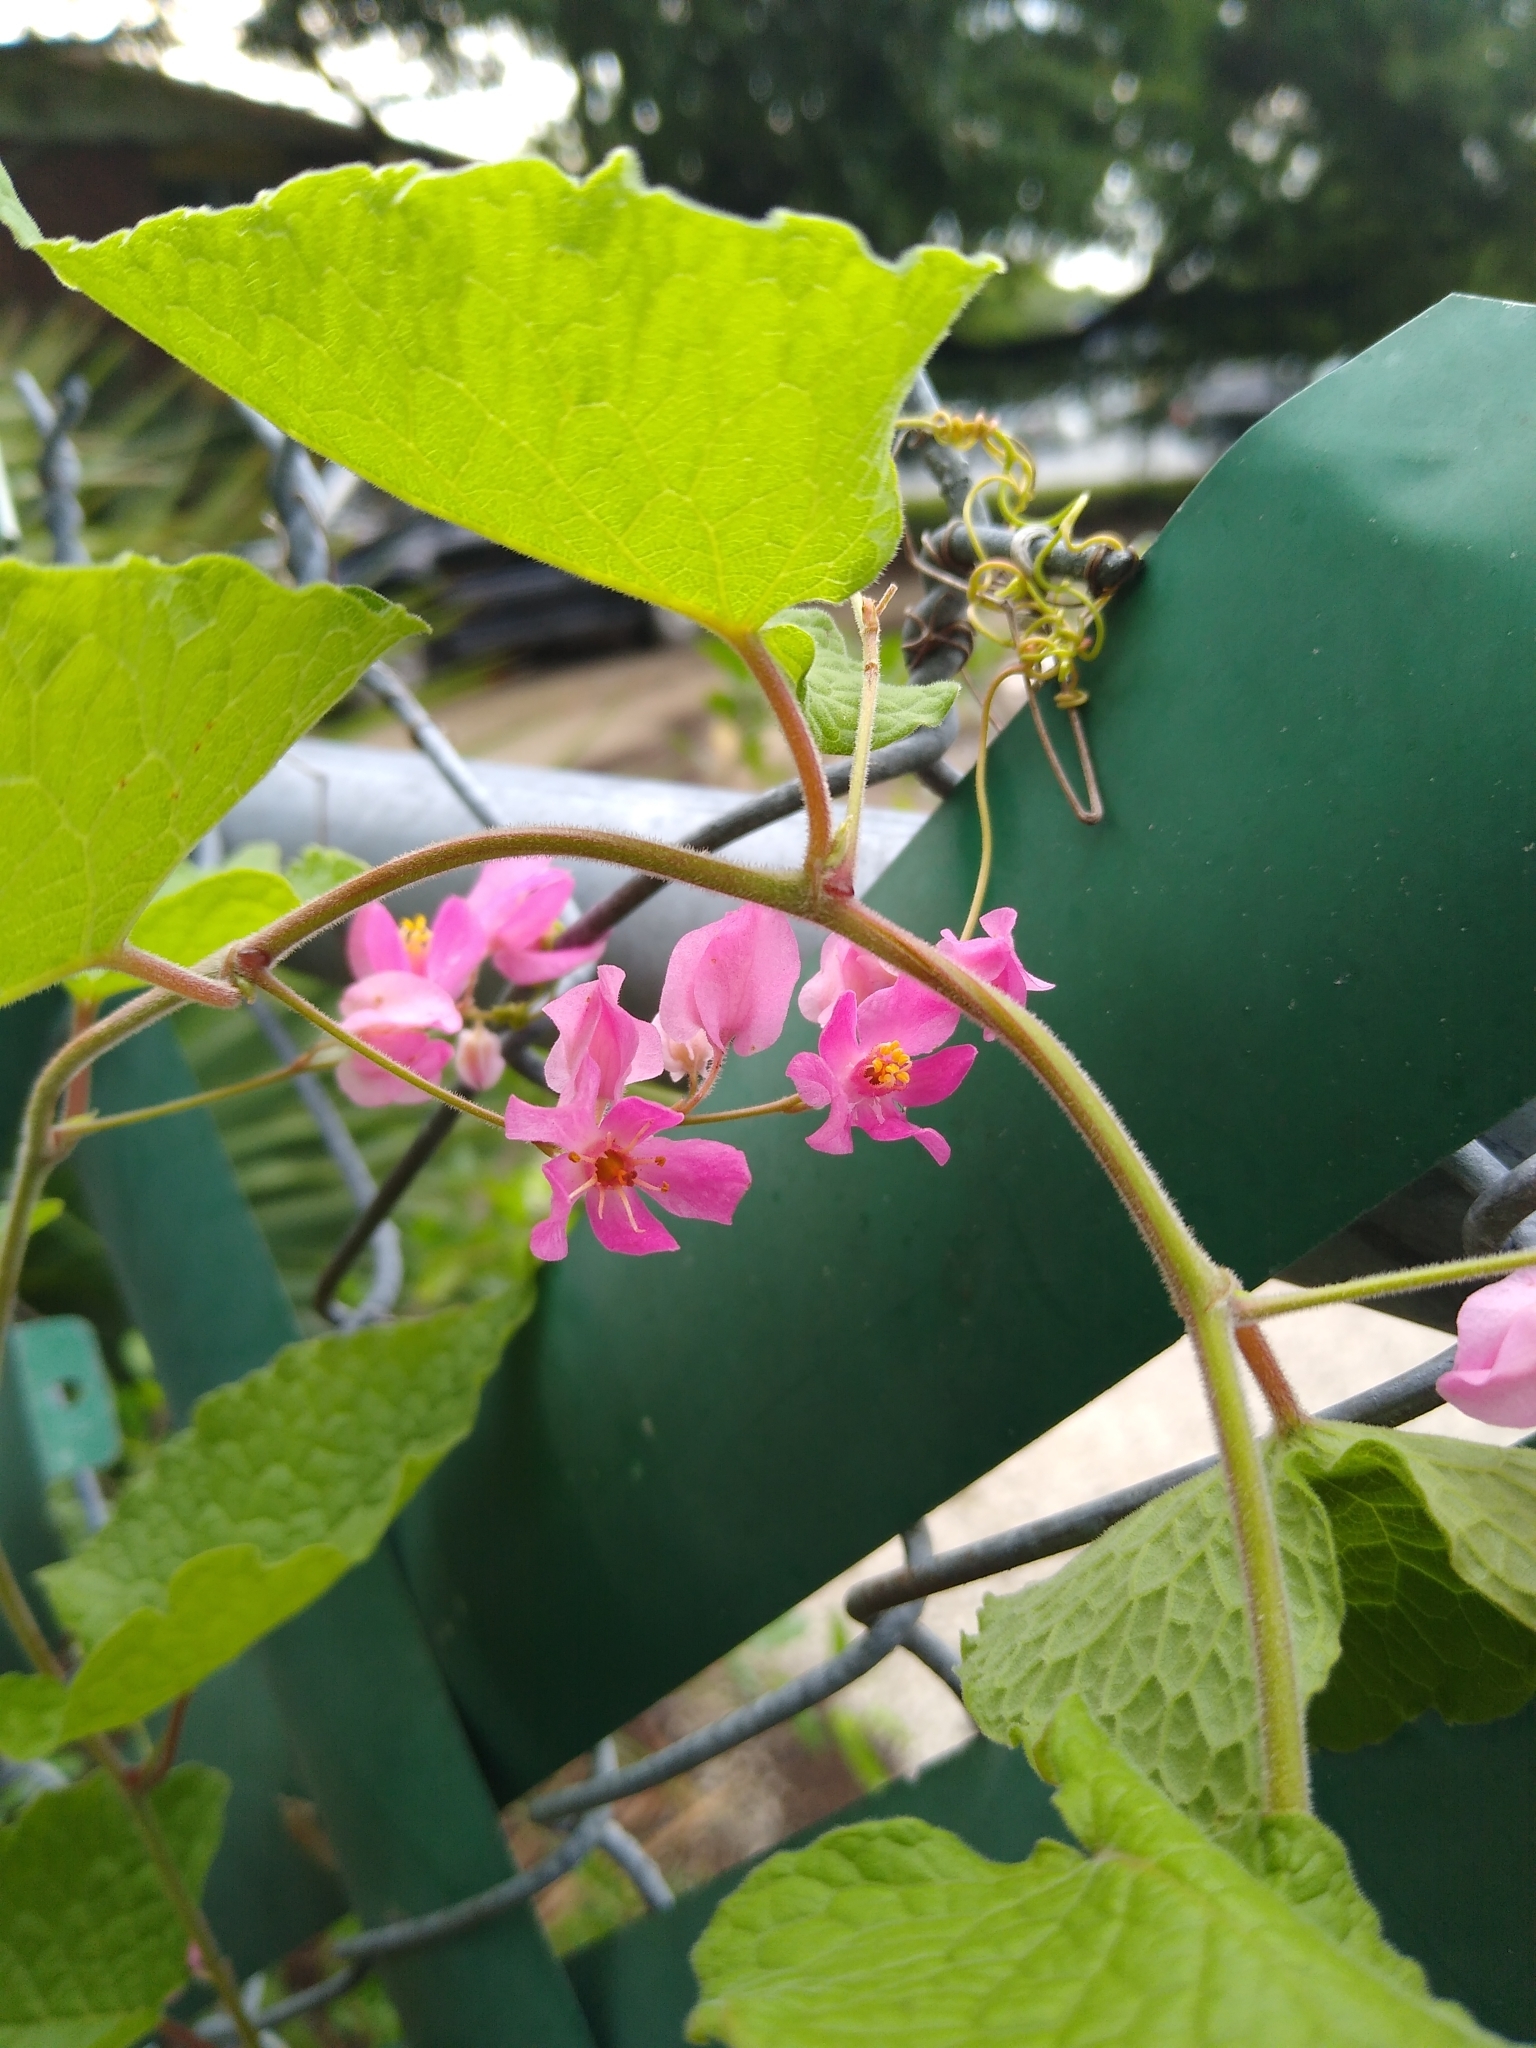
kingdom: Plantae
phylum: Tracheophyta
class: Magnoliopsida
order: Caryophyllales
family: Polygonaceae
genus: Antigonon
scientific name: Antigonon leptopus
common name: Coral vine
